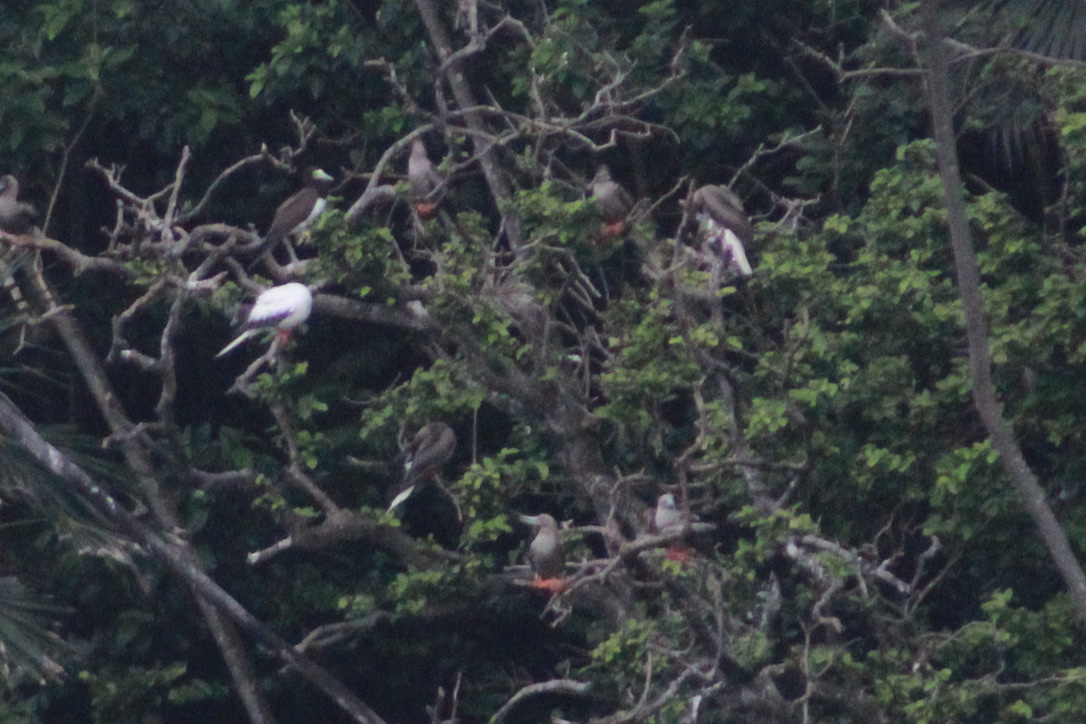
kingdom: Animalia
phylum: Chordata
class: Aves
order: Suliformes
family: Sulidae
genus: Sula
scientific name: Sula sula
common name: Red-footed booby
